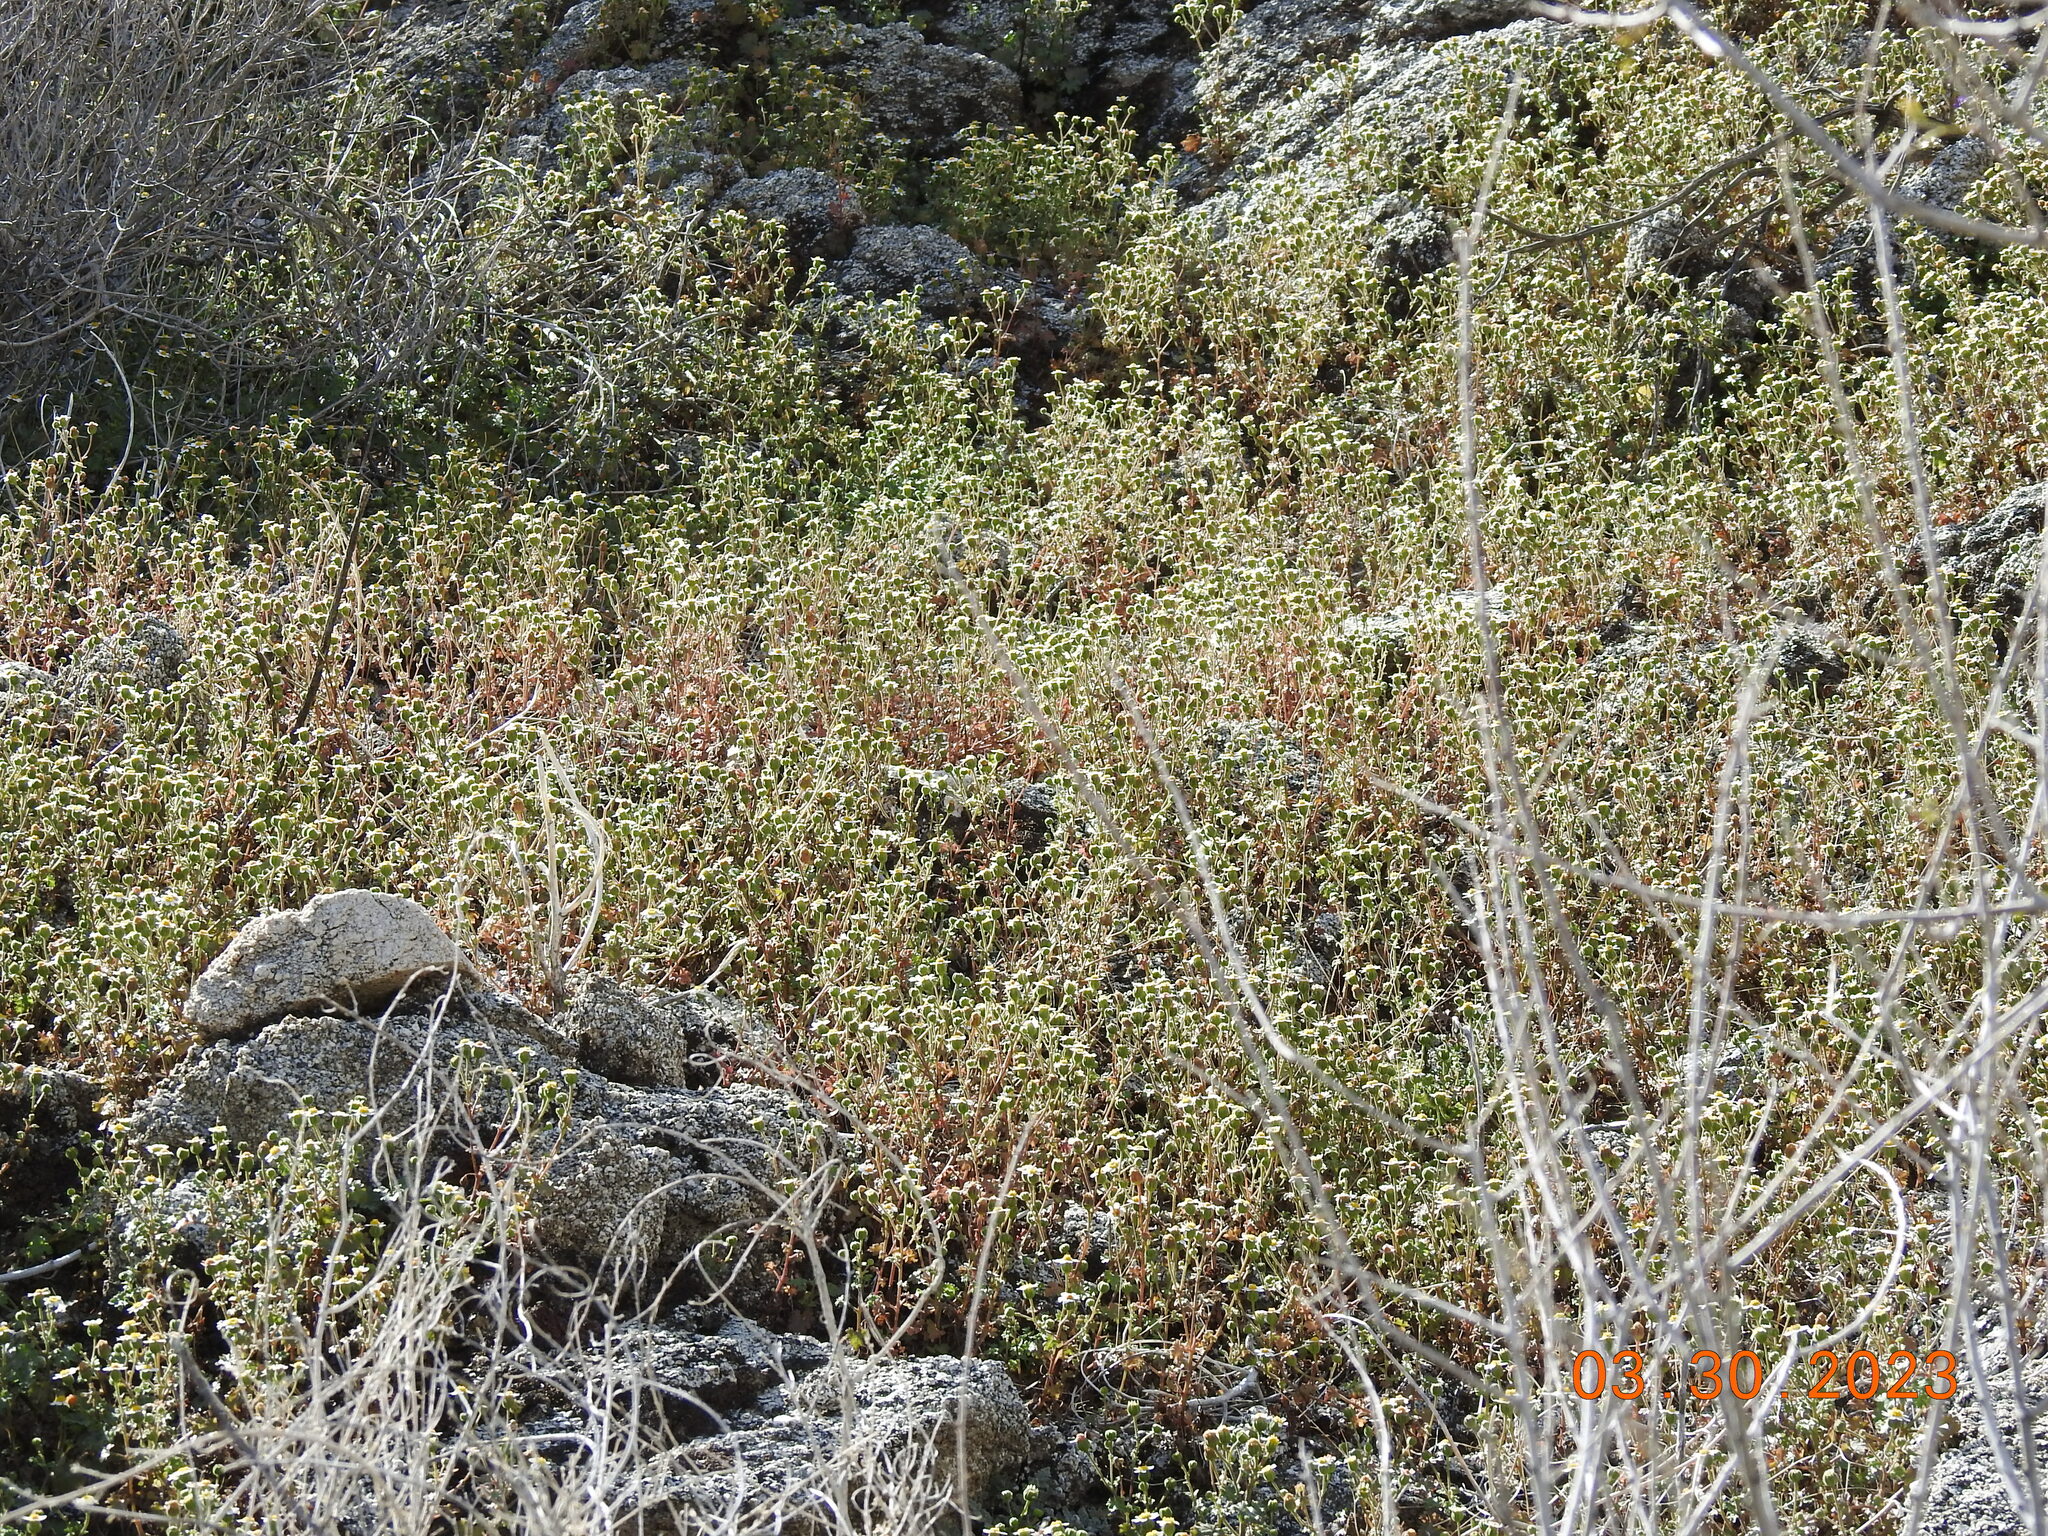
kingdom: Plantae
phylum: Tracheophyta
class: Magnoliopsida
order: Asterales
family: Asteraceae
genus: Laphamia
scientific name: Laphamia emoryi
